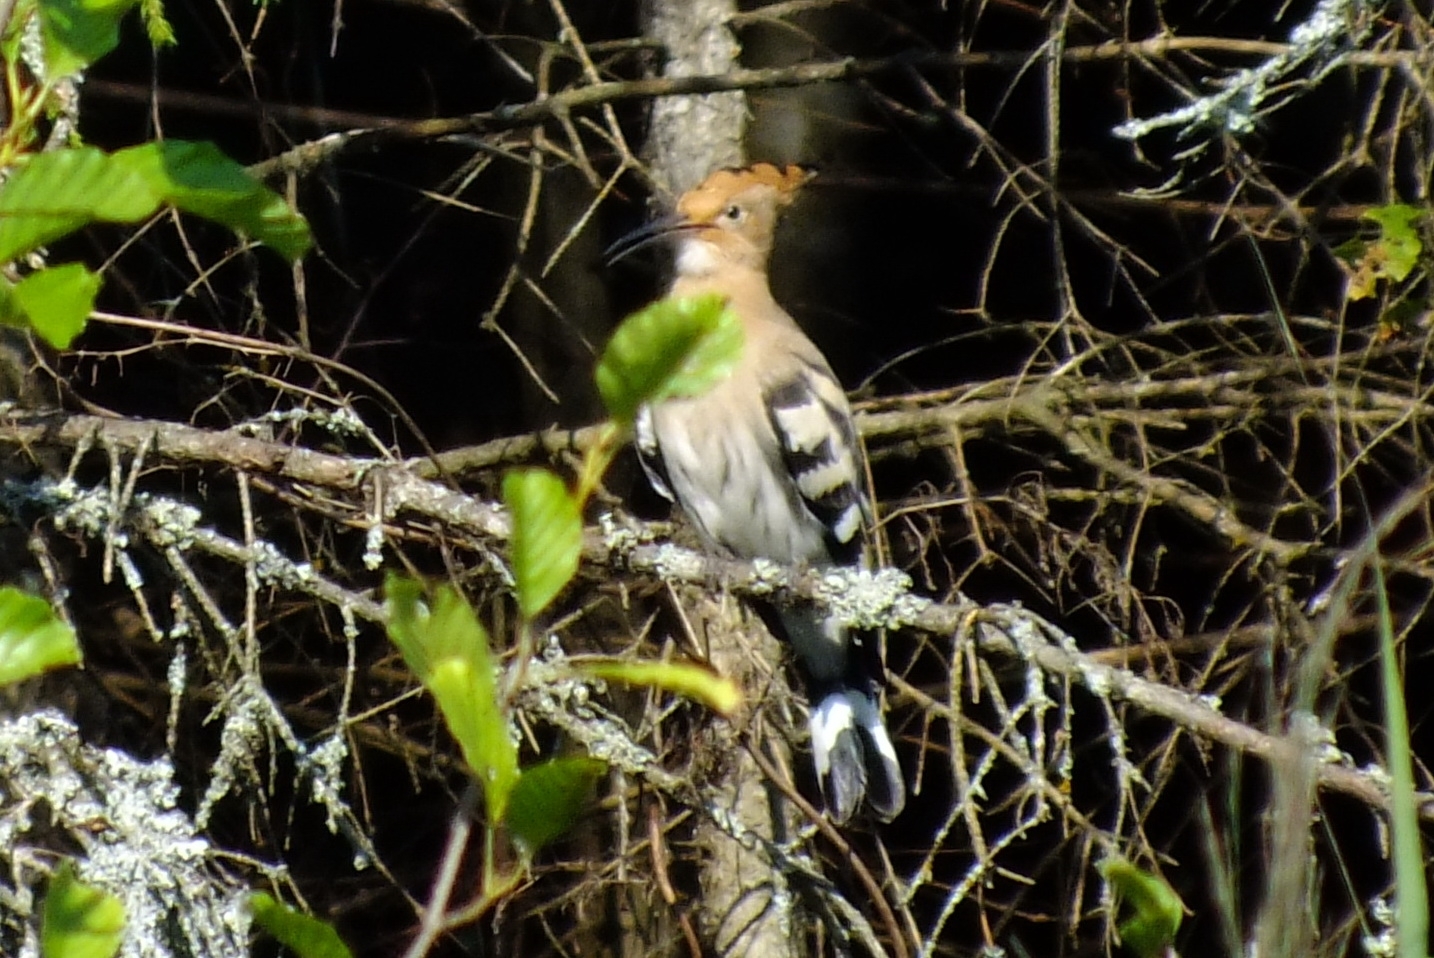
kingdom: Animalia
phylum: Chordata
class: Aves
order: Bucerotiformes
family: Upupidae
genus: Upupa
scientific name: Upupa epops
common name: Eurasian hoopoe
